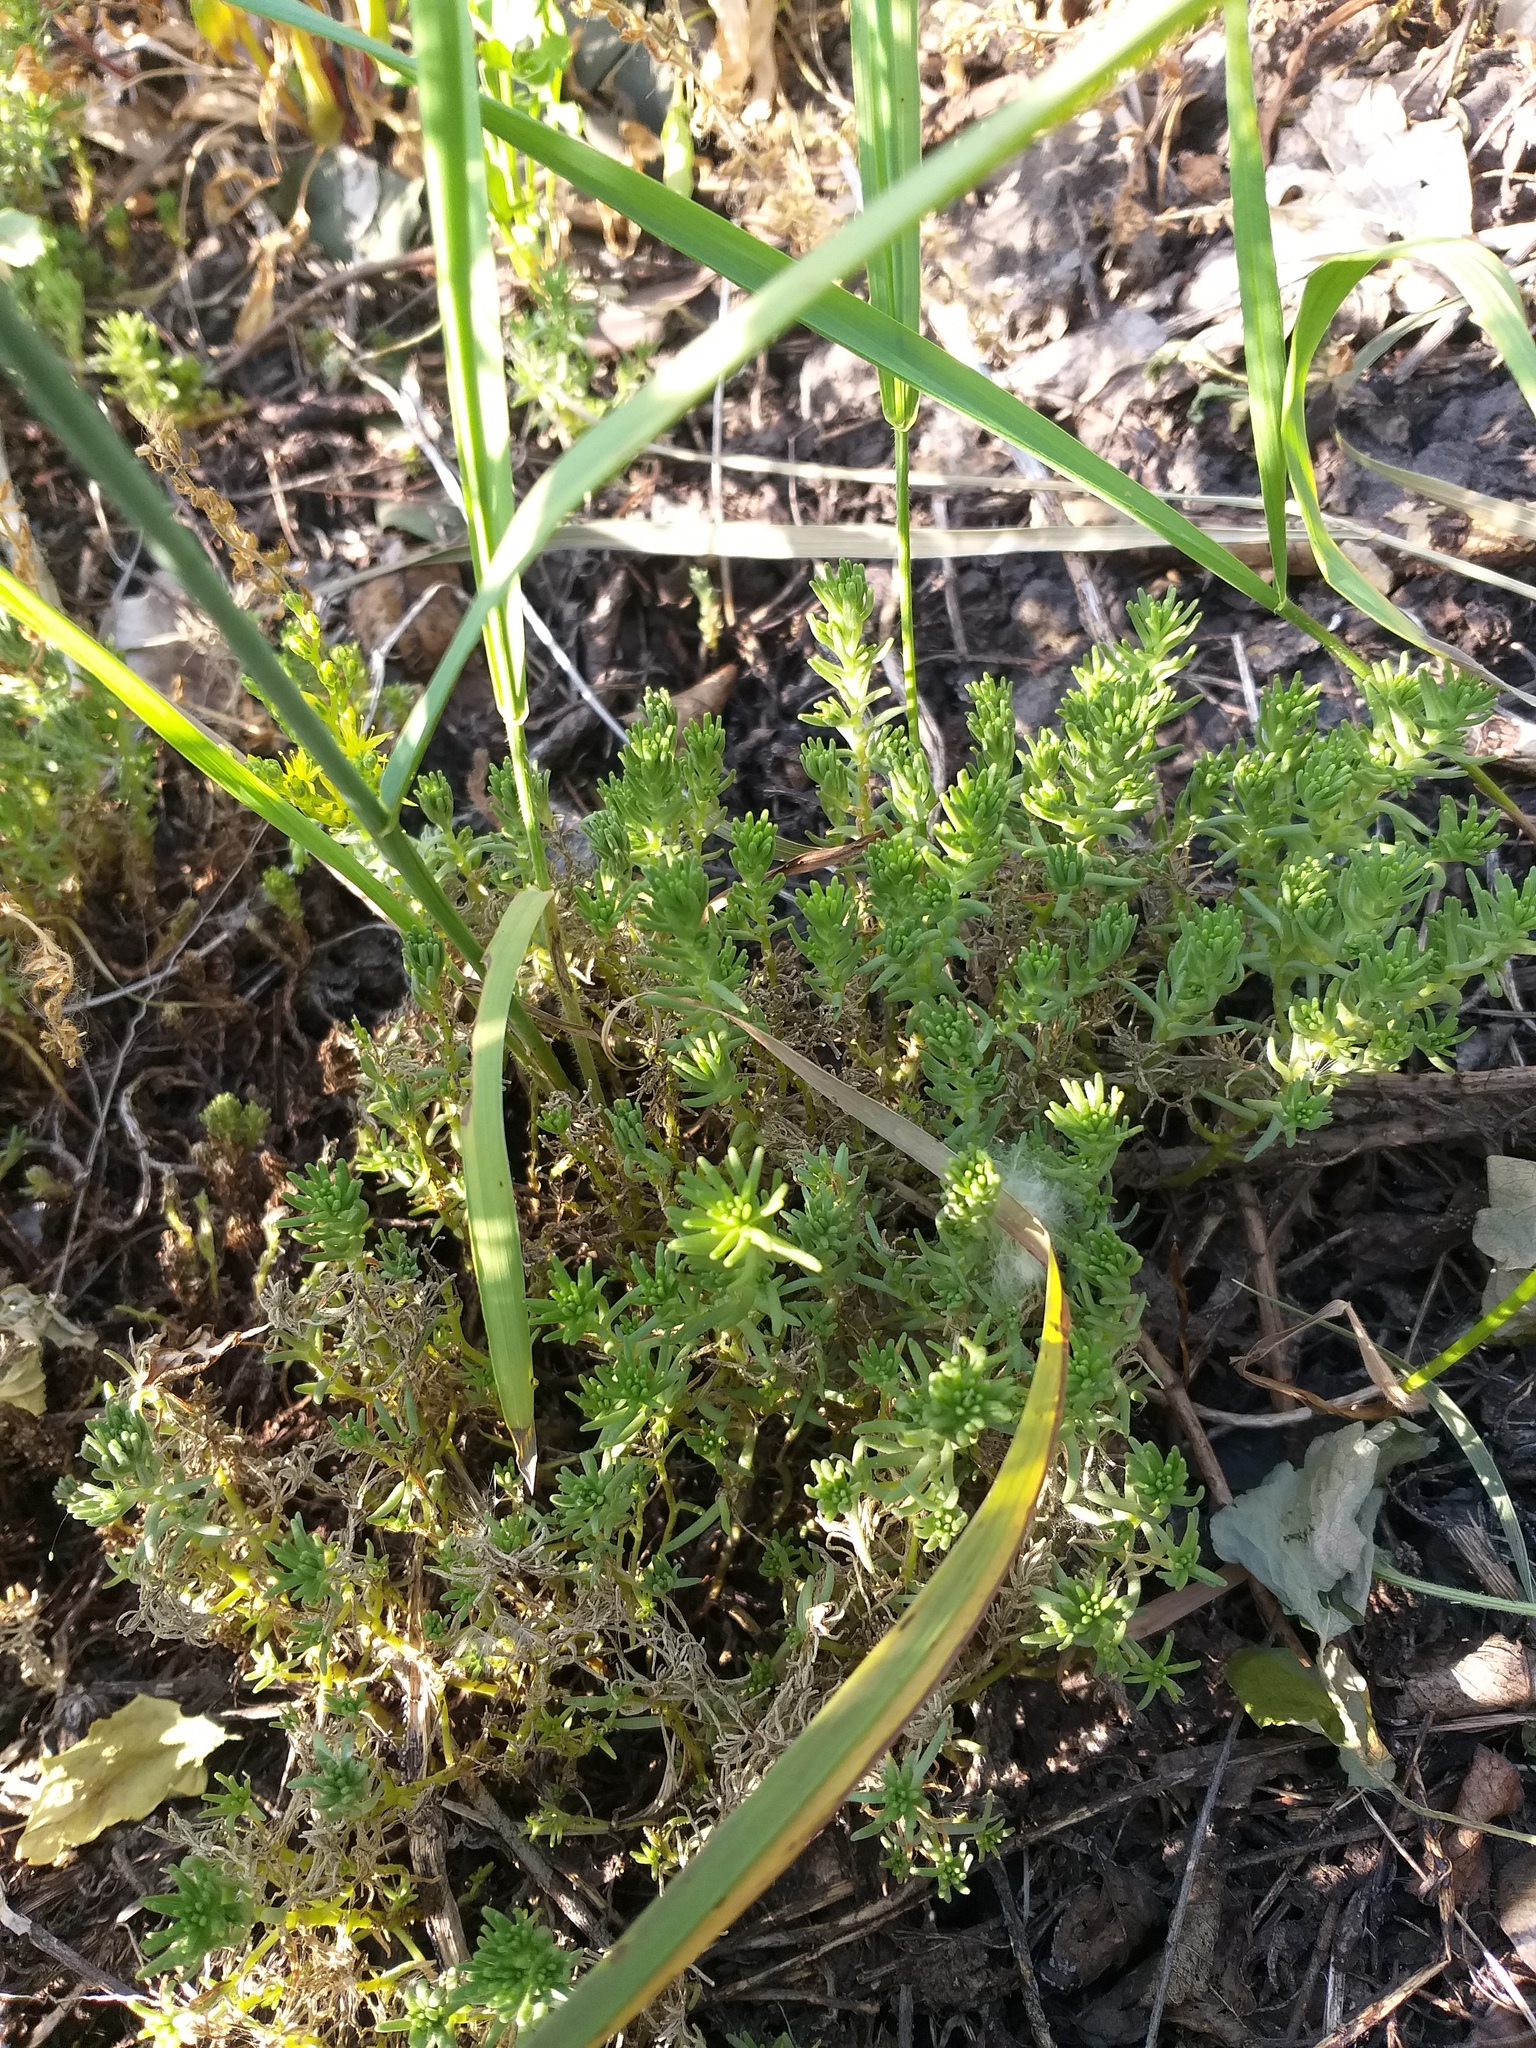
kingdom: Plantae
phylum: Tracheophyta
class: Magnoliopsida
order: Saxifragales
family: Crassulaceae
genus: Sedum
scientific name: Sedum sexangulare
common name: Tasteless stonecrop
